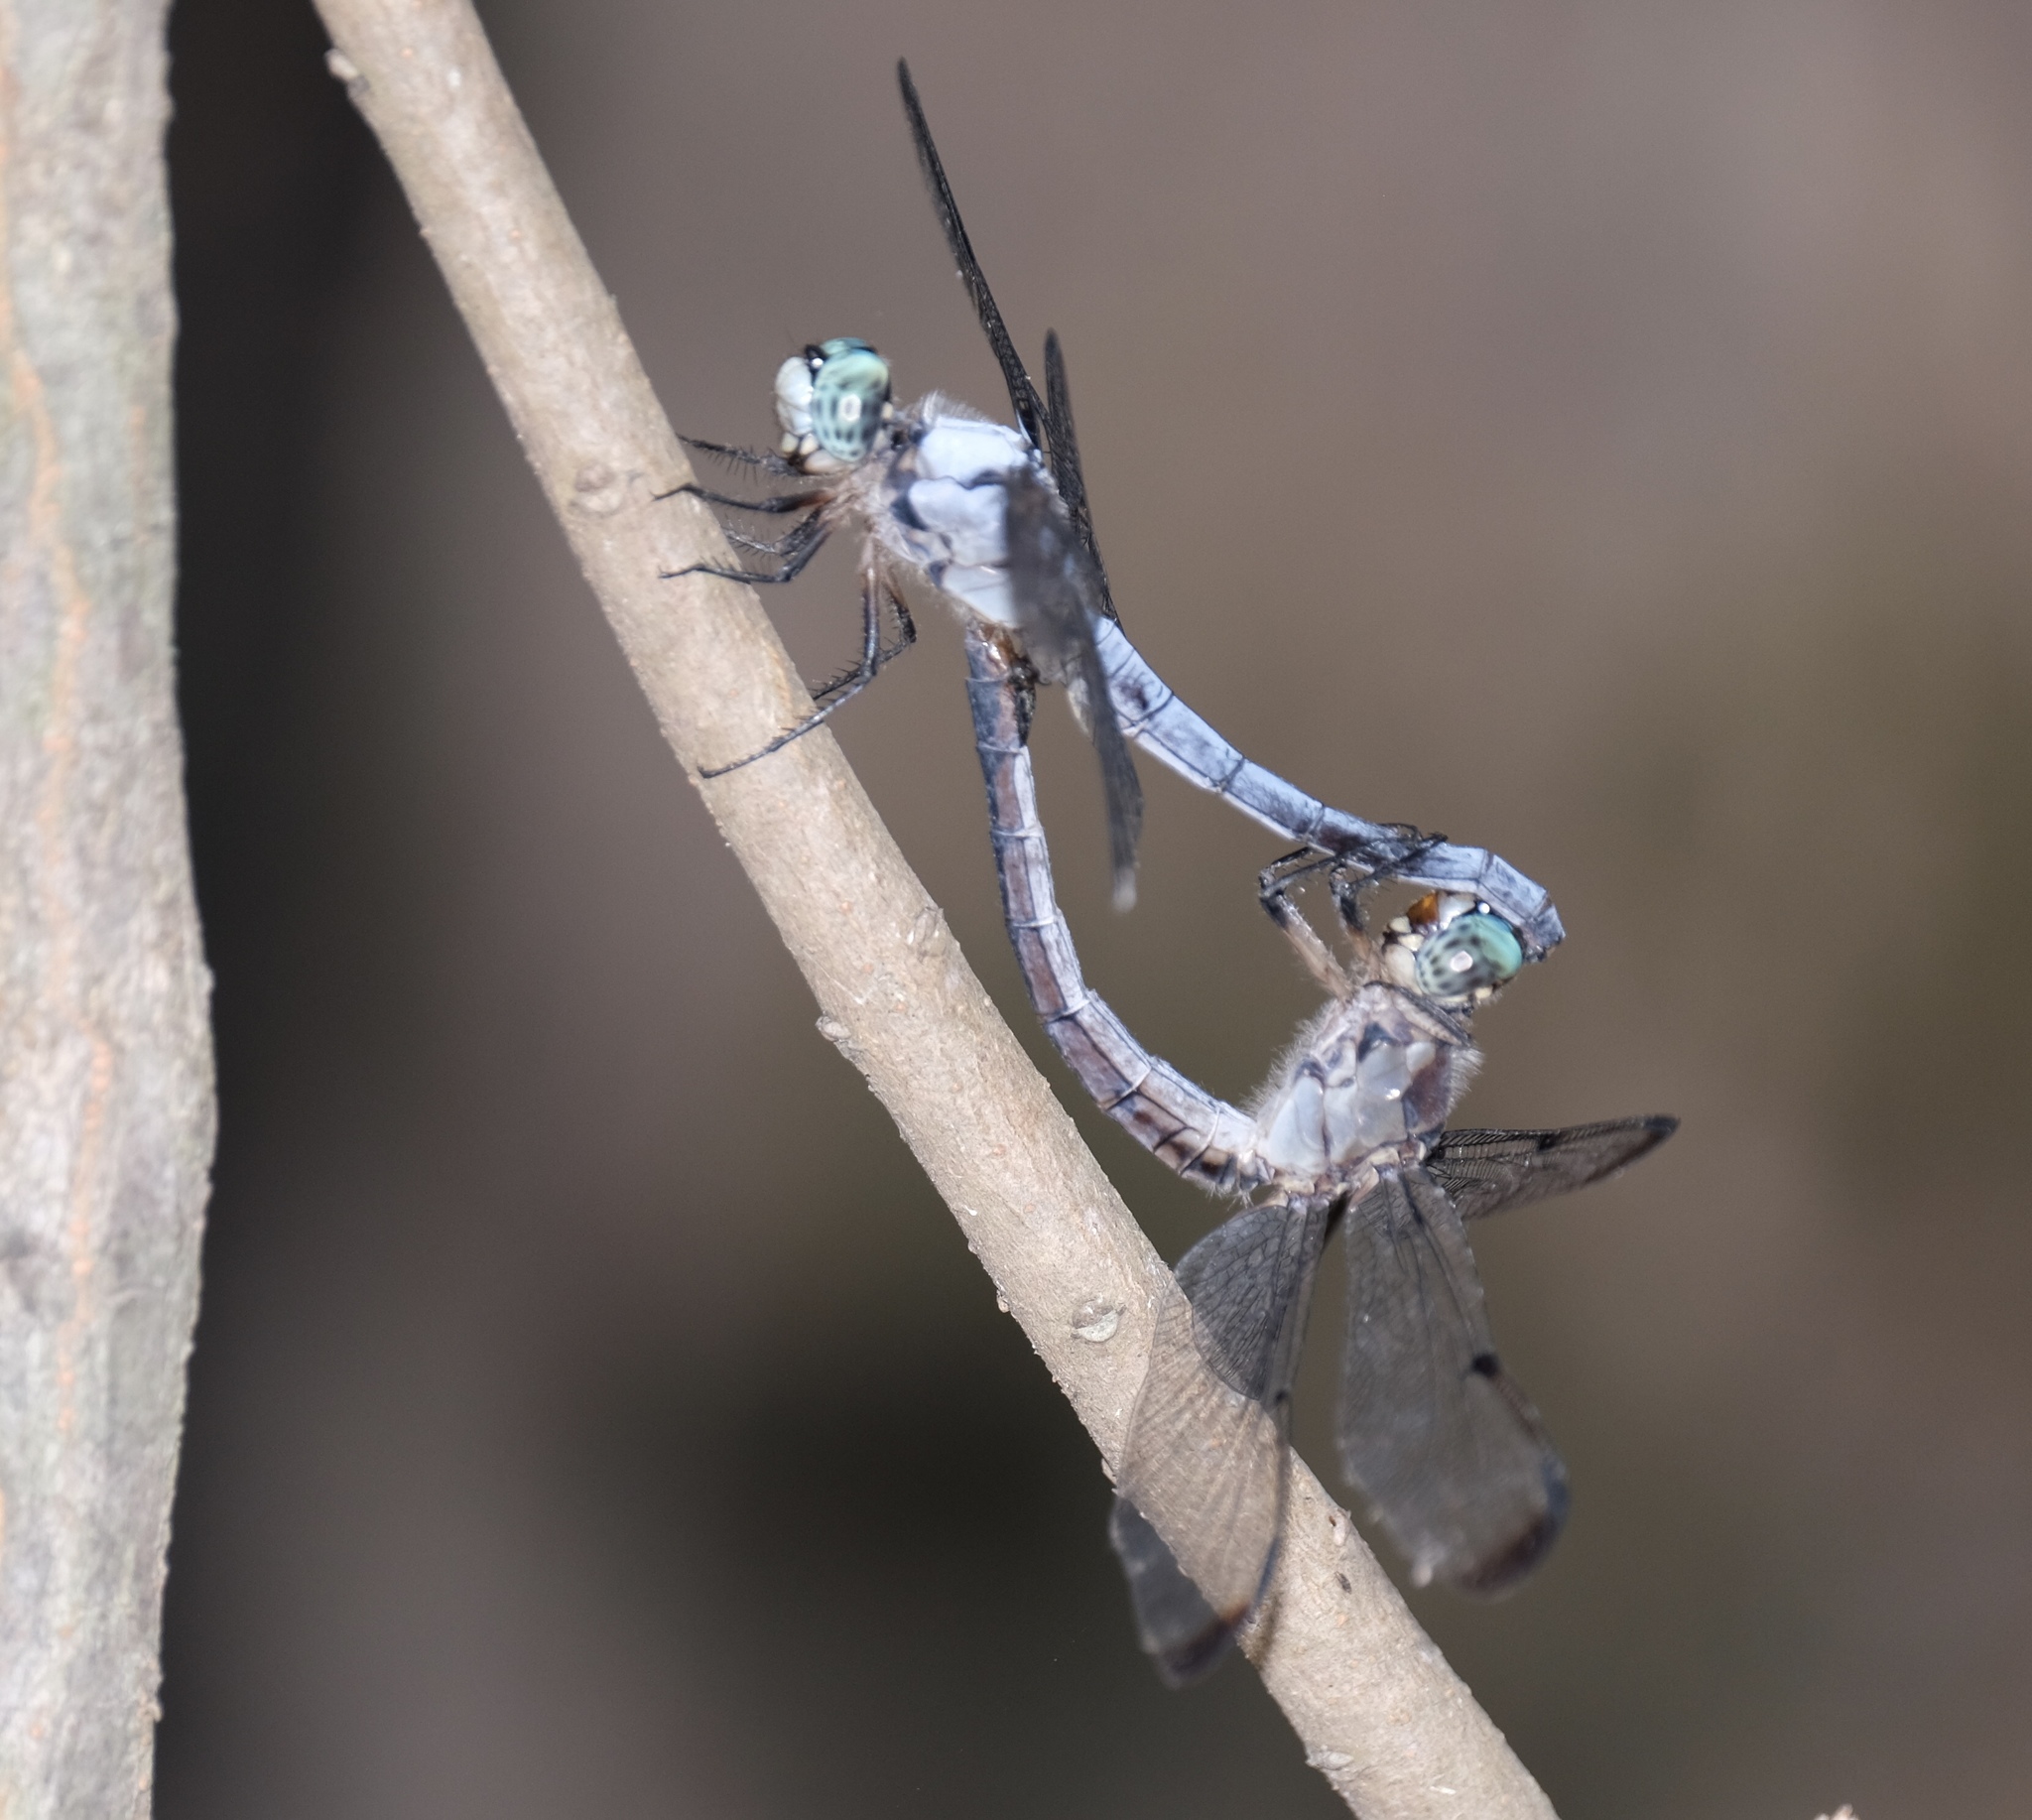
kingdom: Animalia
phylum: Arthropoda
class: Insecta
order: Odonata
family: Libellulidae
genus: Libellula
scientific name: Libellula vibrans
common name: Great blue skimmer
